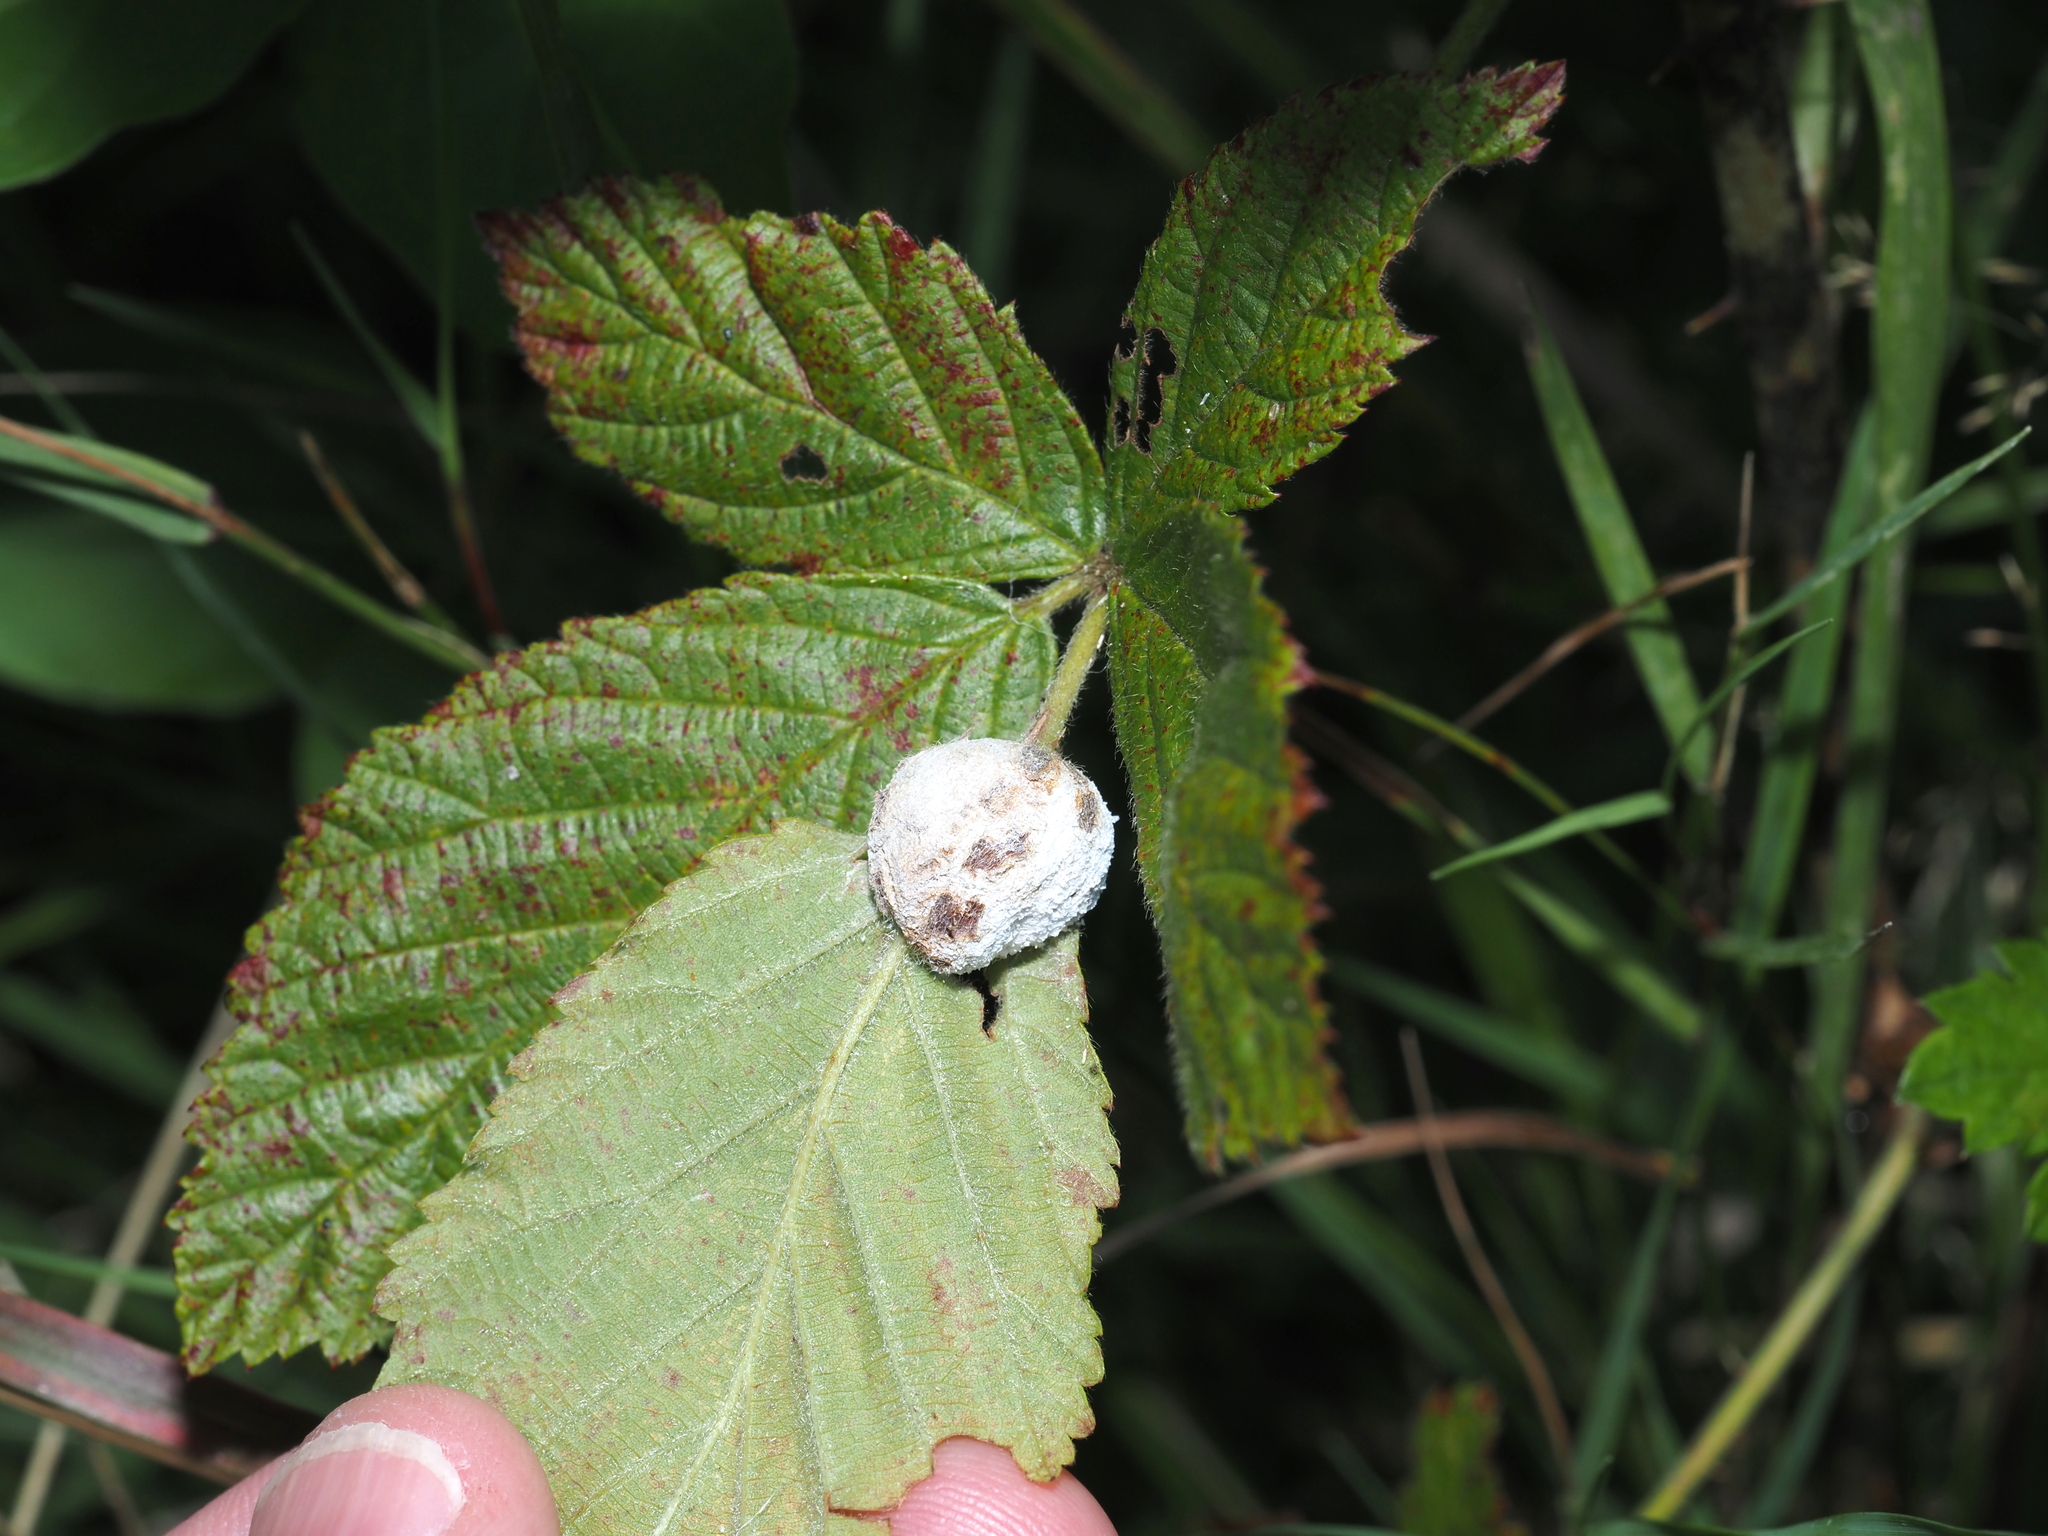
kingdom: Animalia
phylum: Arthropoda
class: Insecta
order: Diptera
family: Cecidomyiidae
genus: Neolasioptera
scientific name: Neolasioptera farinosa
